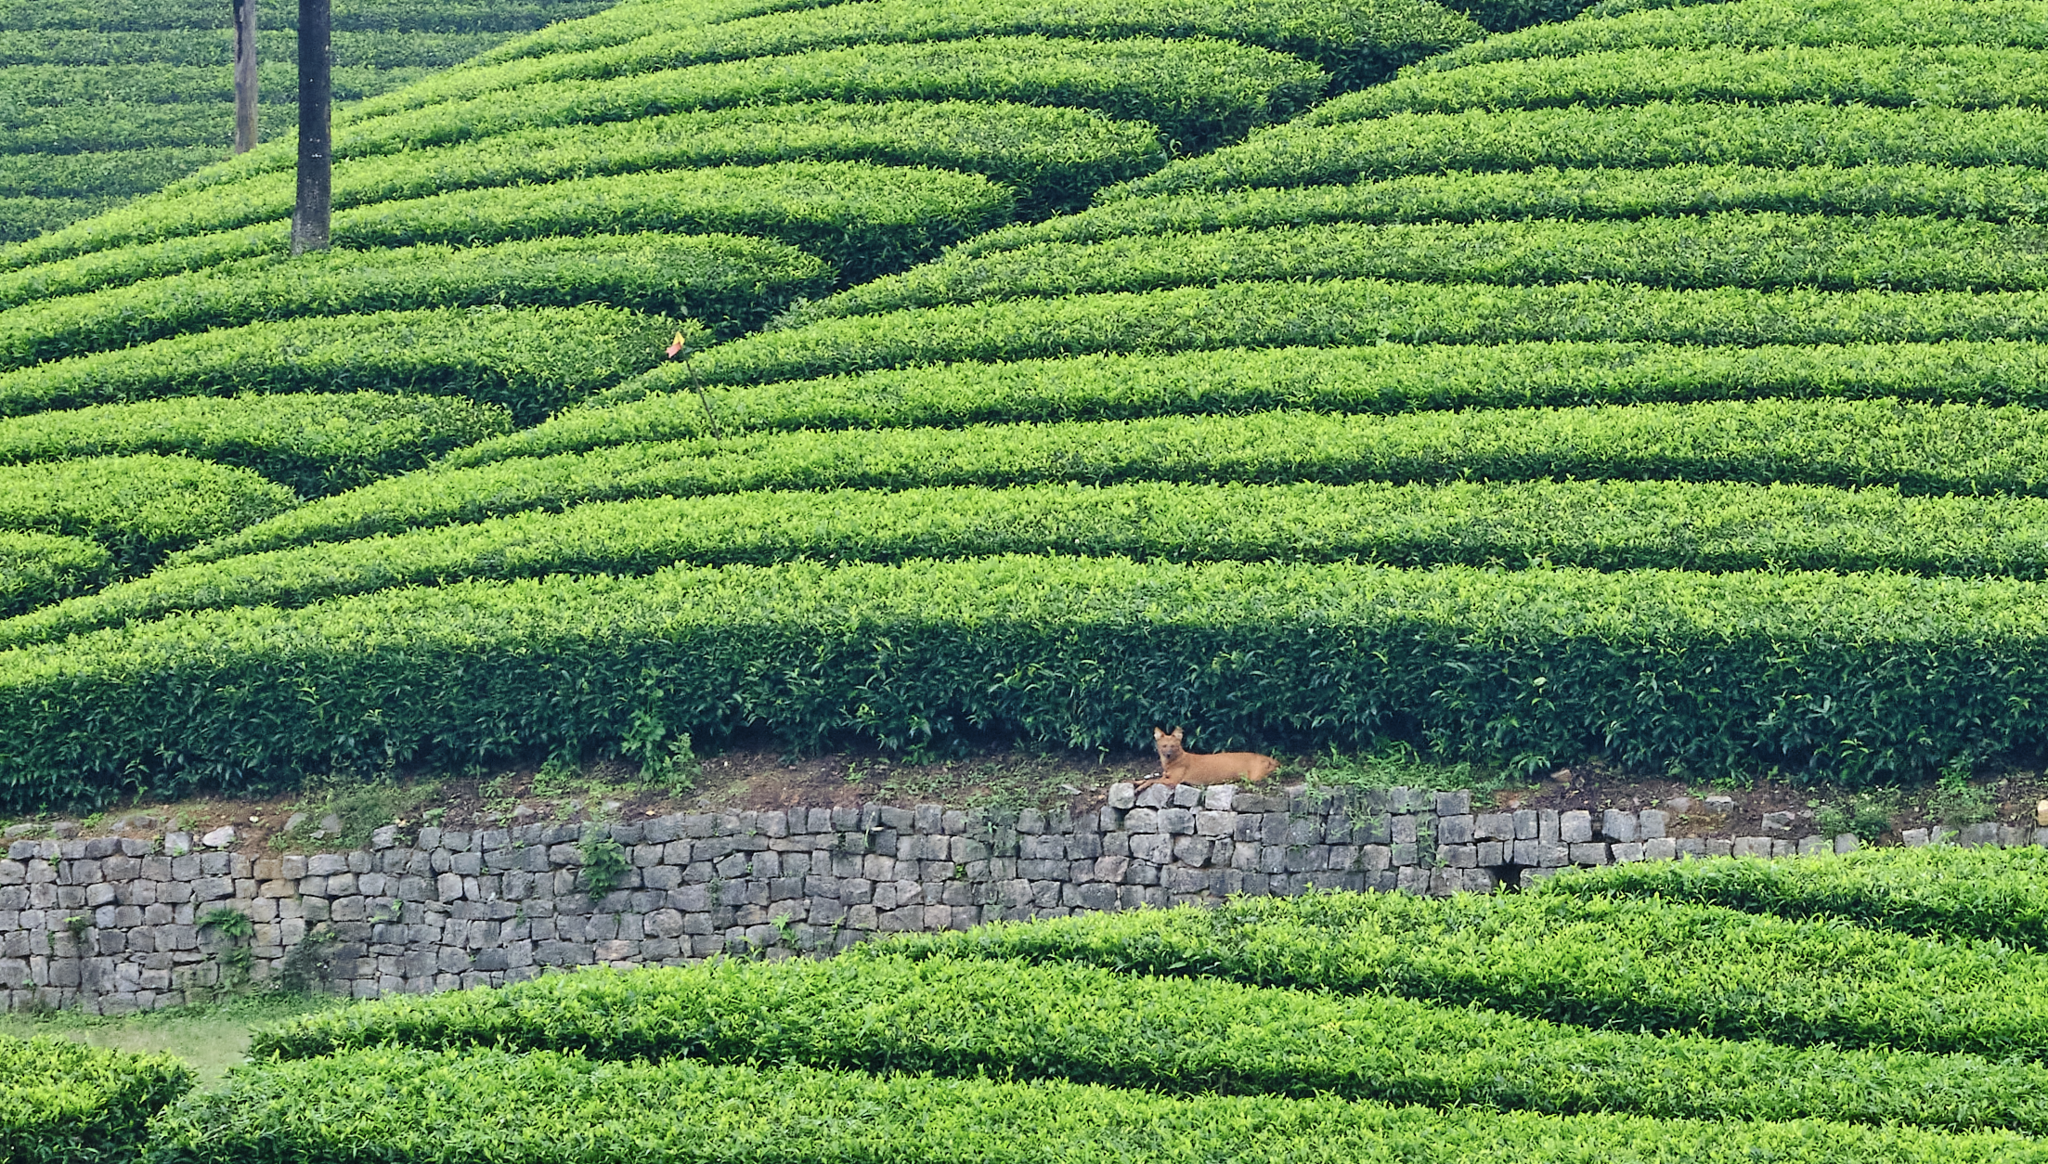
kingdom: Animalia
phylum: Chordata
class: Mammalia
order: Carnivora
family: Canidae
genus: Cuon
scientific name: Cuon alpinus
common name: Dhole
